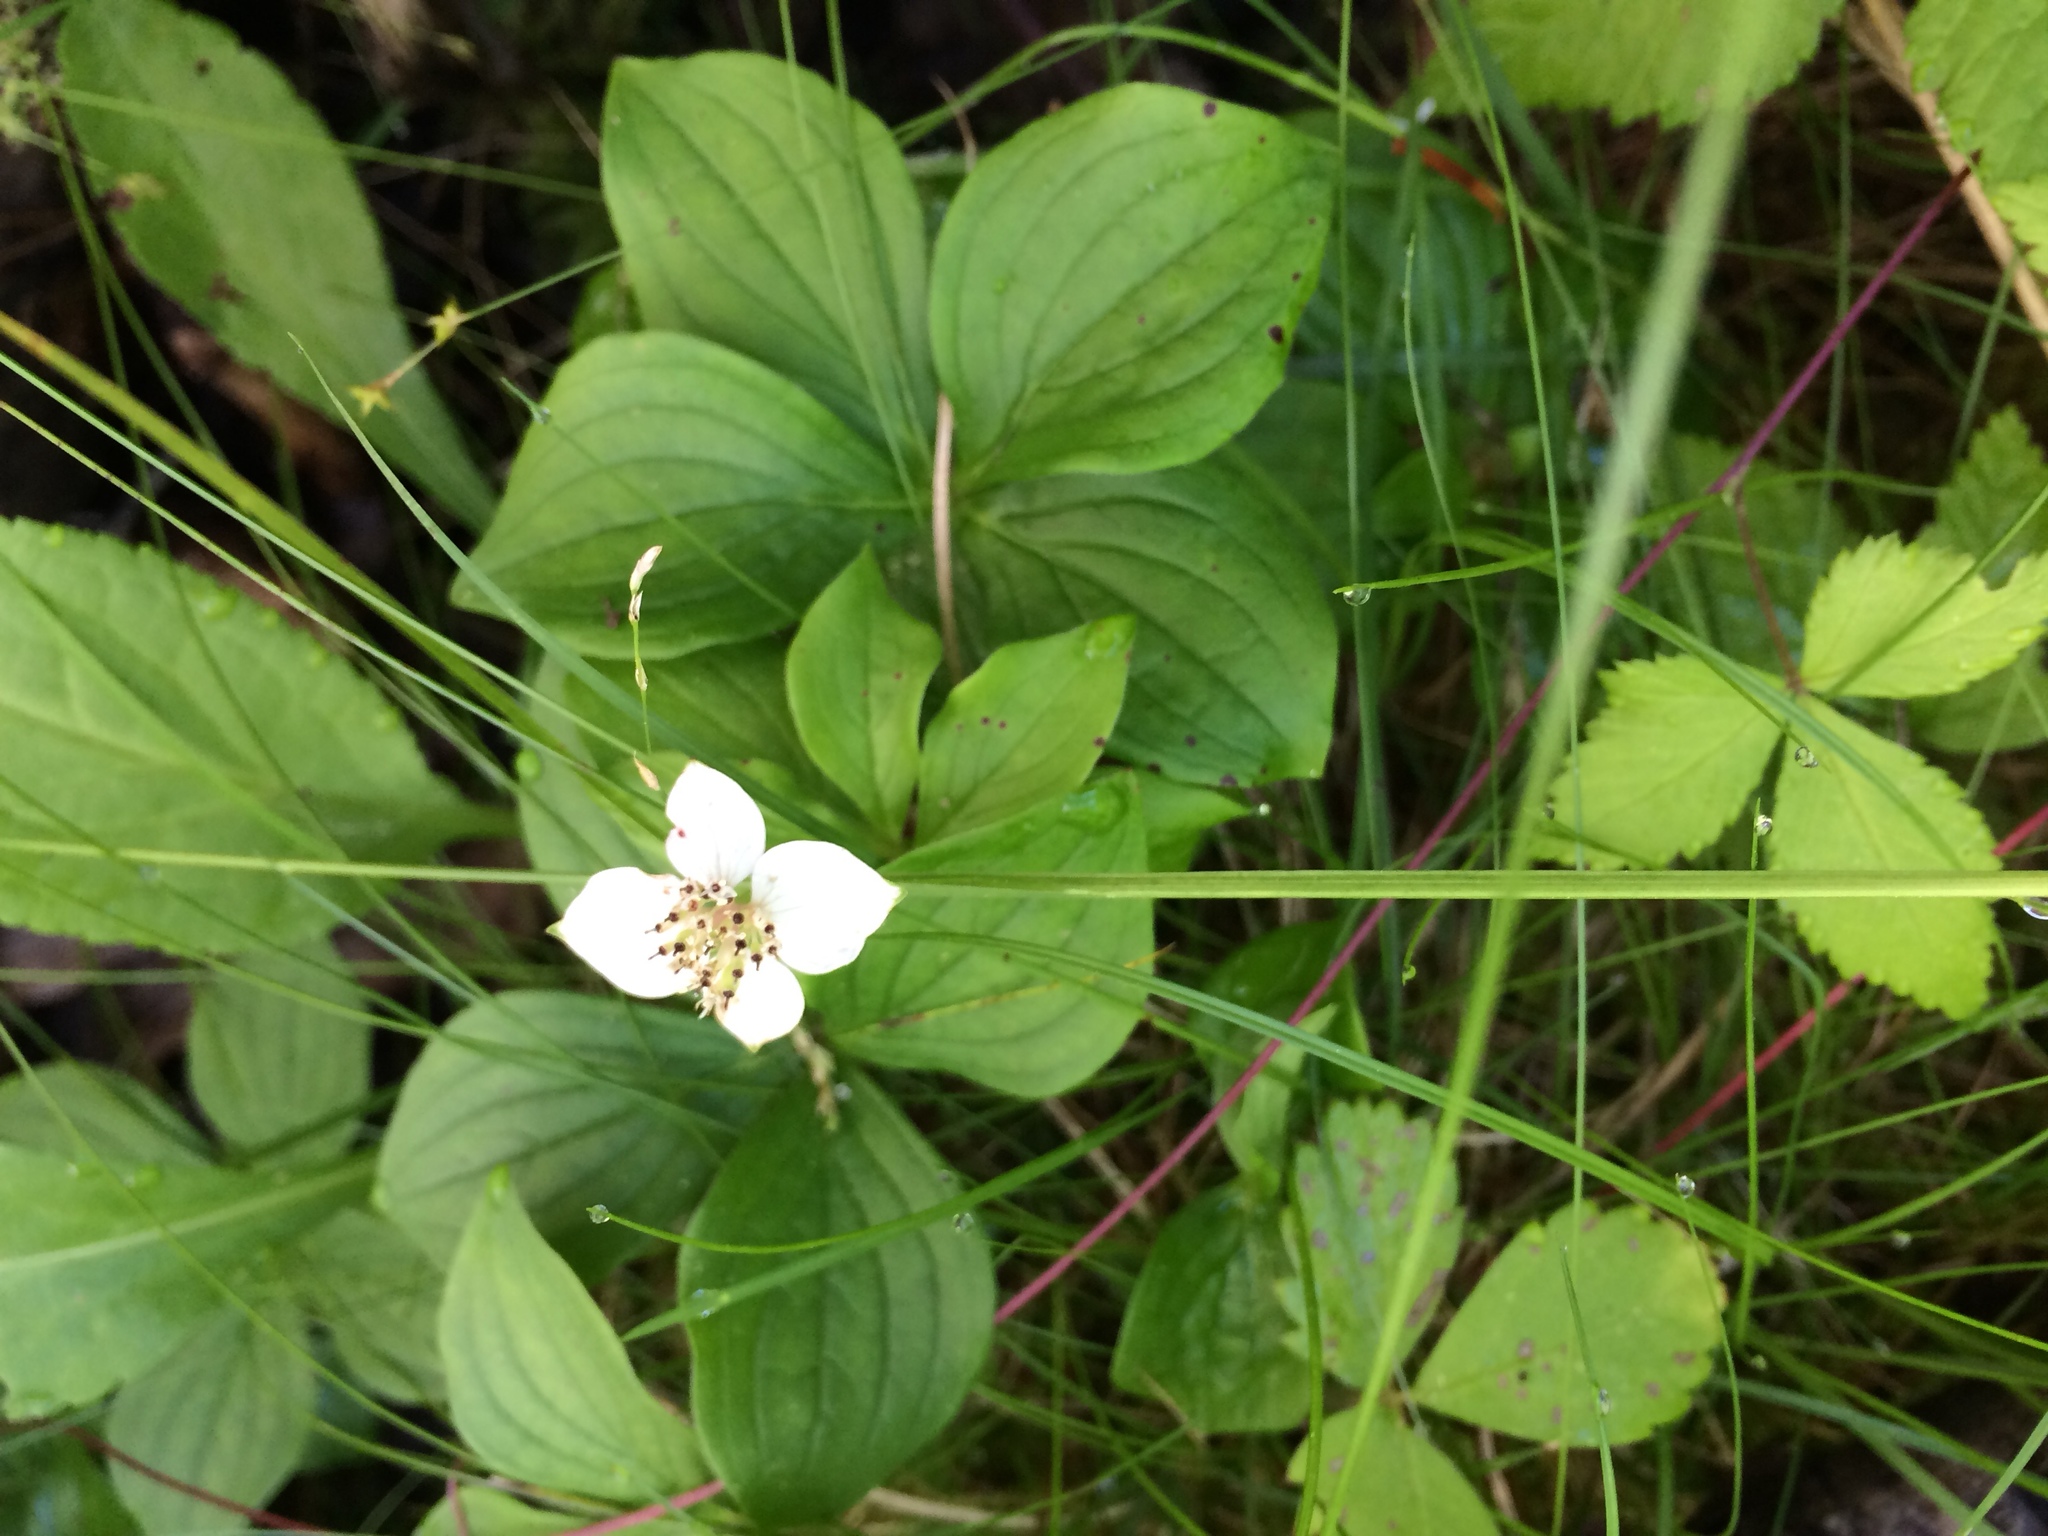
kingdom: Plantae
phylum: Tracheophyta
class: Magnoliopsida
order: Cornales
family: Cornaceae
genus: Cornus
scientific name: Cornus canadensis
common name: Creeping dogwood
